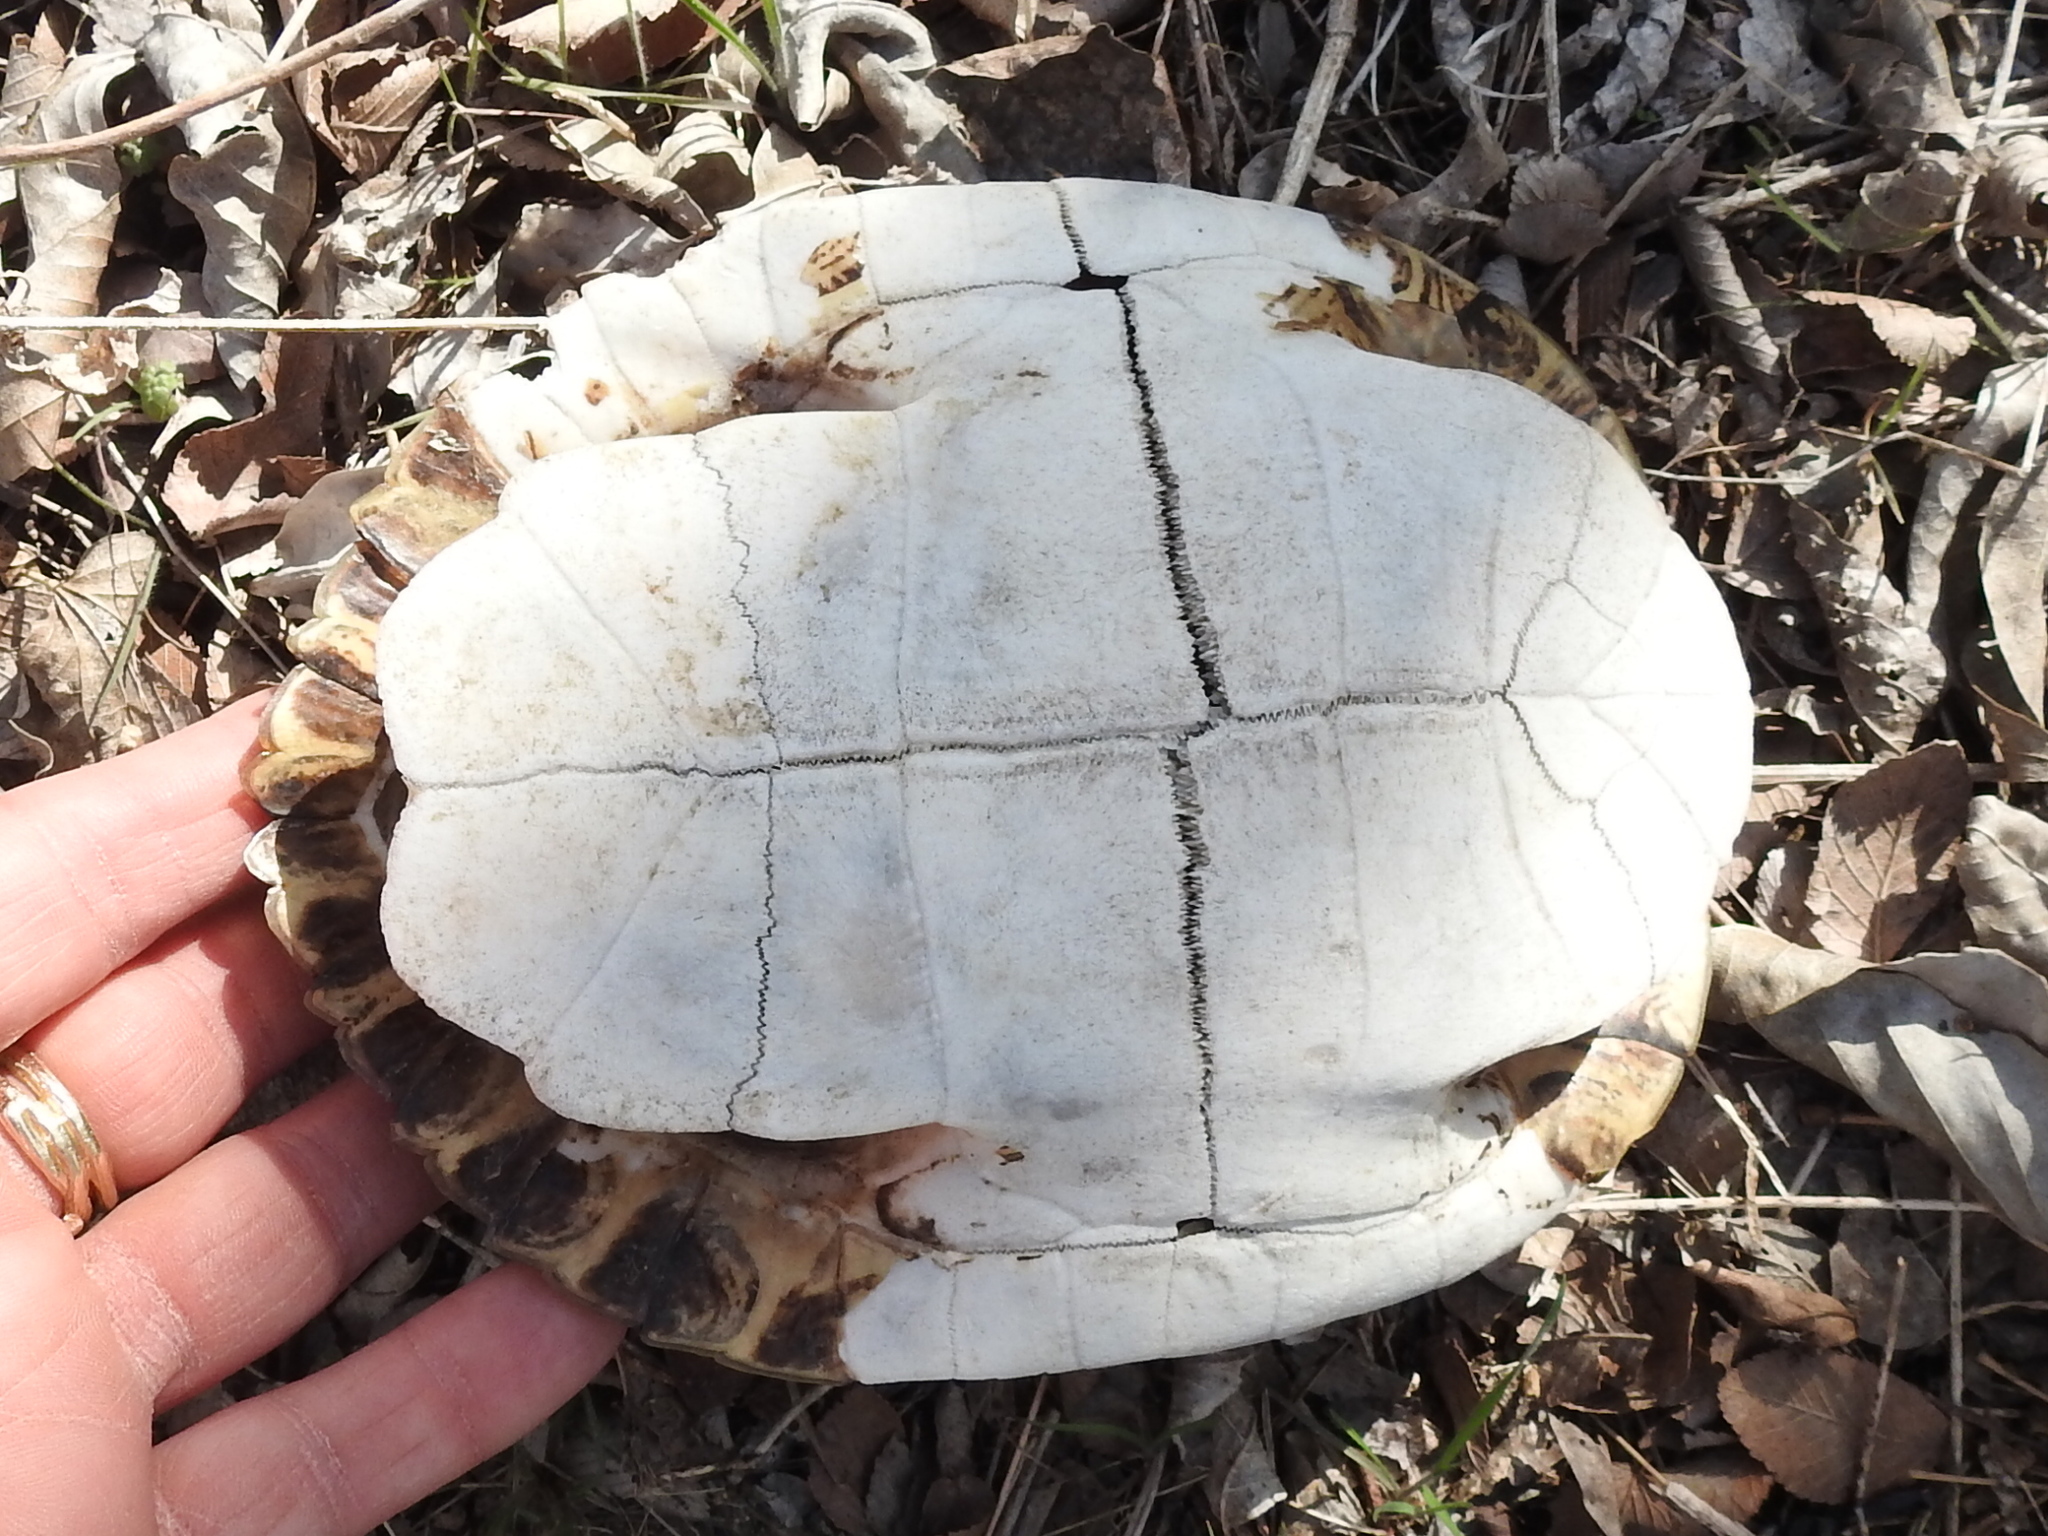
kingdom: Animalia
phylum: Chordata
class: Testudines
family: Emydidae
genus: Trachemys
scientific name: Trachemys scripta
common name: Slider
